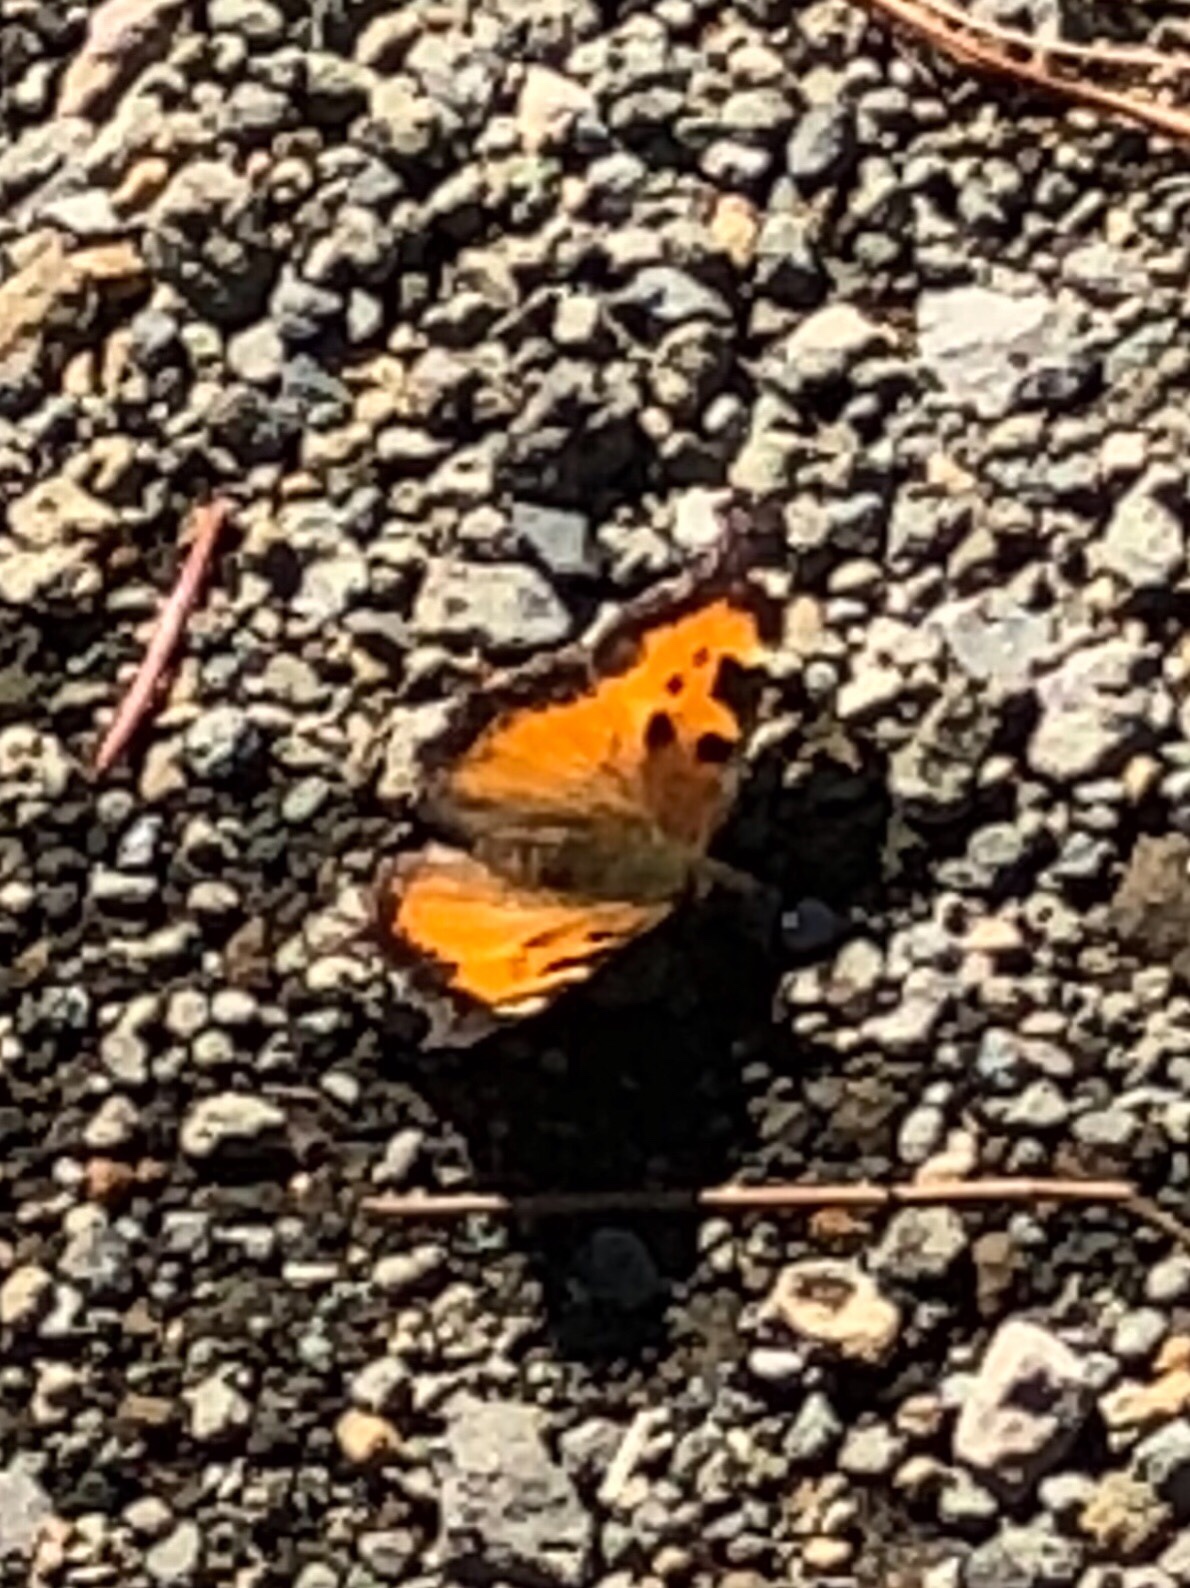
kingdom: Animalia
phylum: Arthropoda
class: Insecta
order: Lepidoptera
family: Nymphalidae
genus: Nymphalis
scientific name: Nymphalis californica
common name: California tortoiseshell
